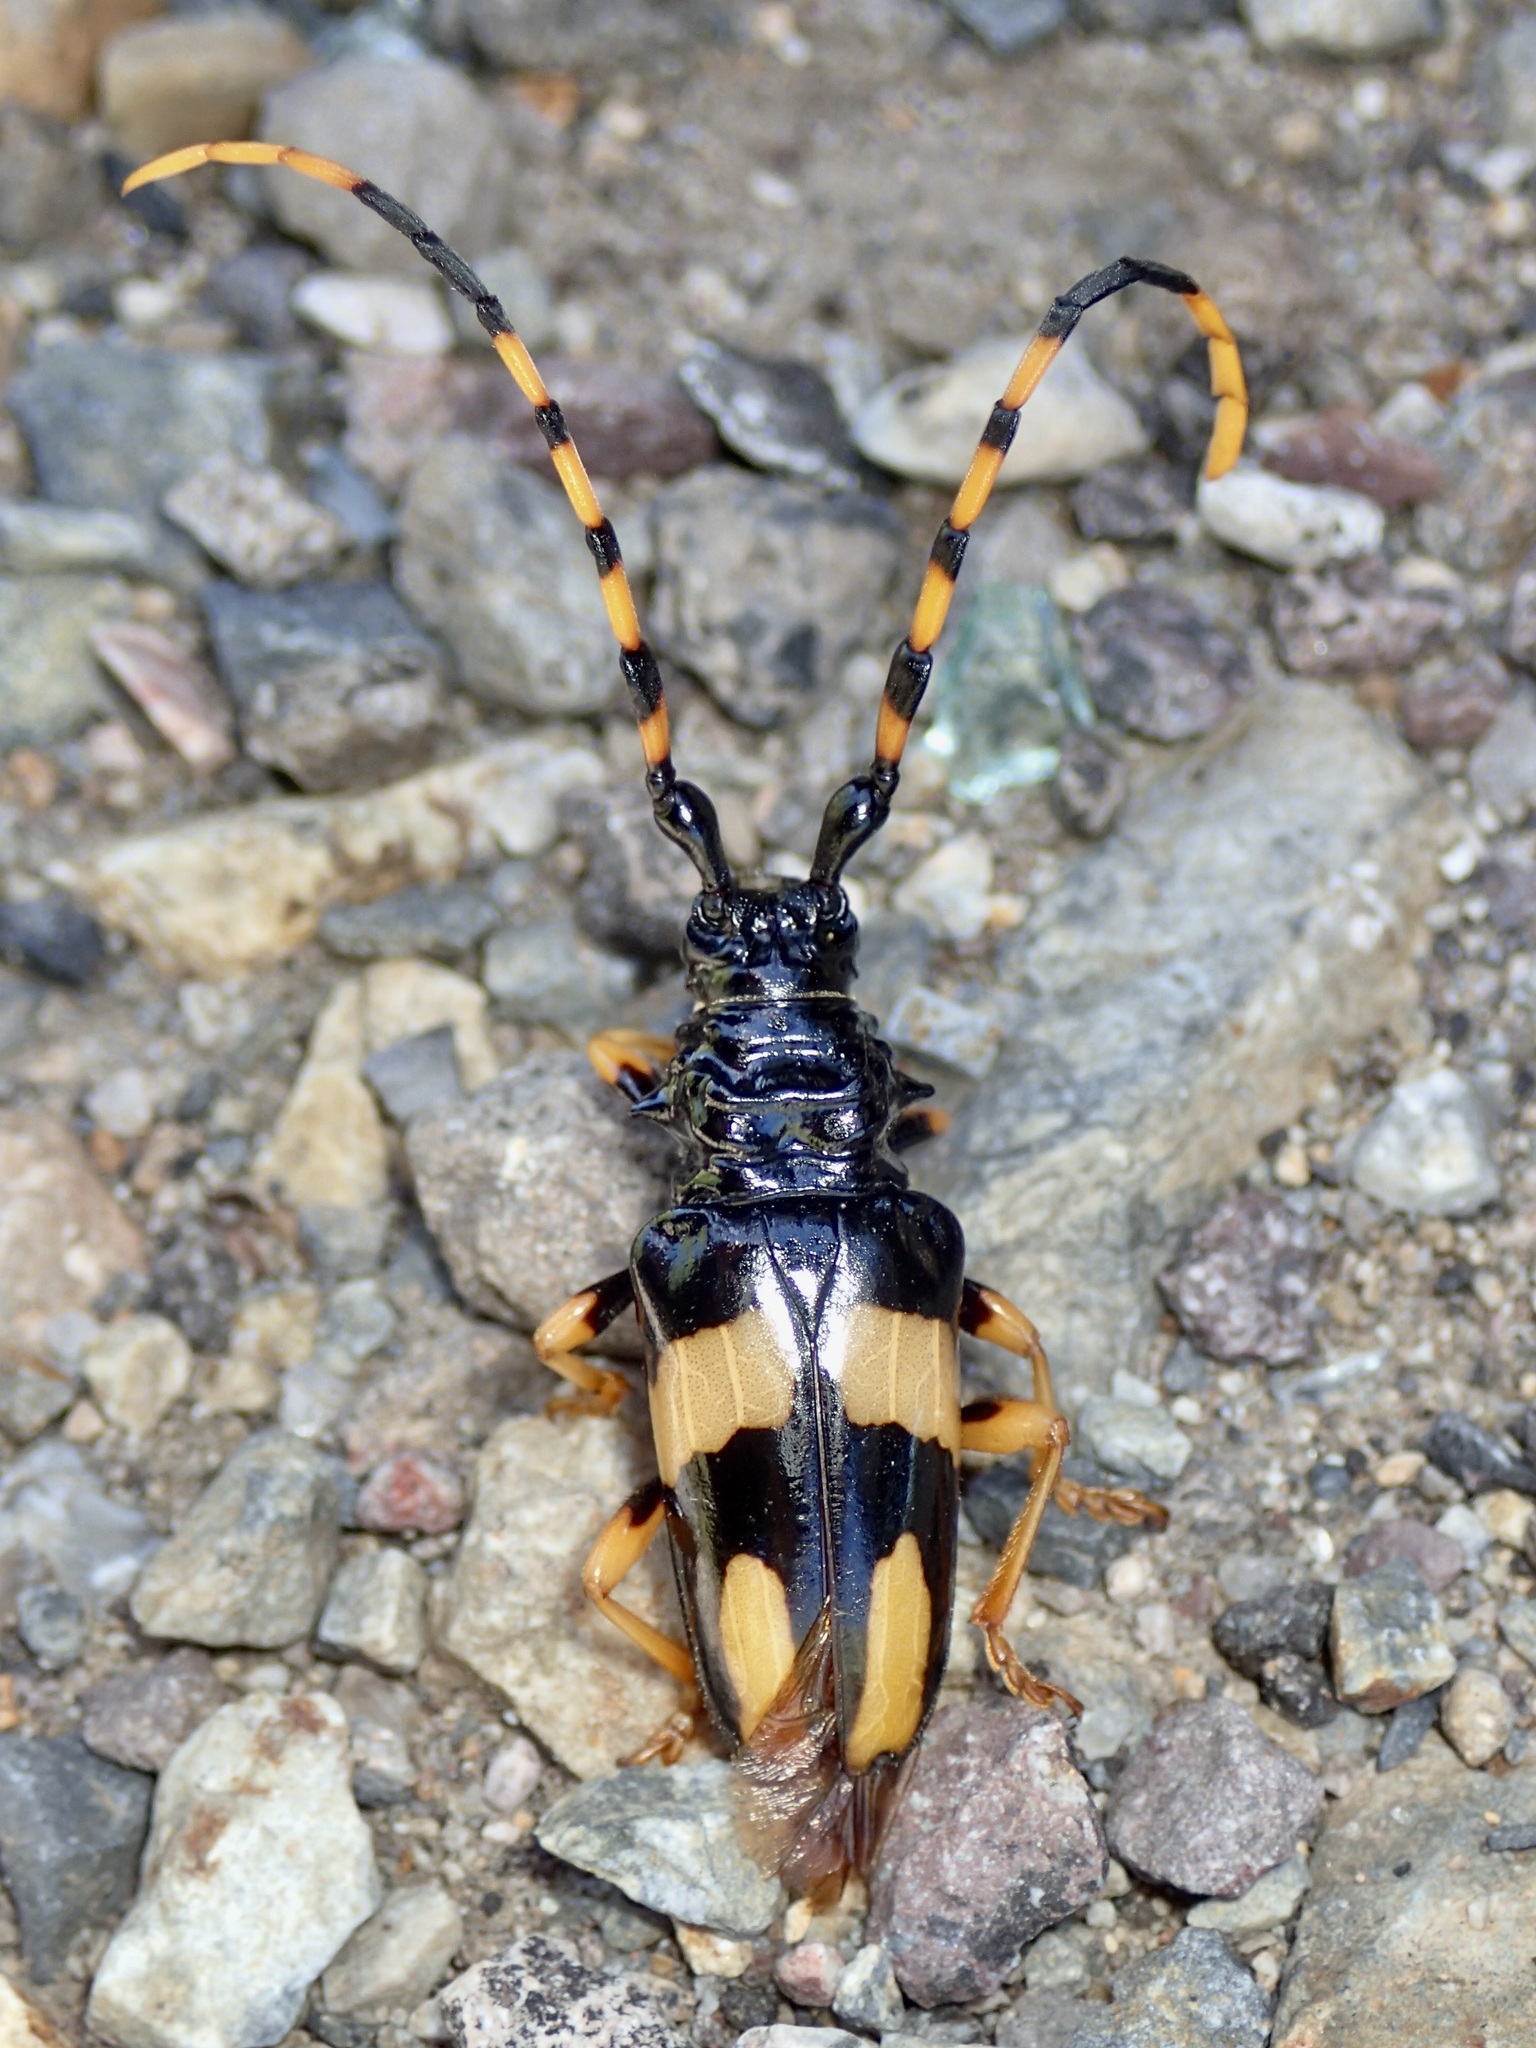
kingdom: Animalia
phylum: Arthropoda
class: Insecta
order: Coleoptera
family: Cerambycidae
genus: Trachyderes
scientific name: Trachyderes mandibularis
